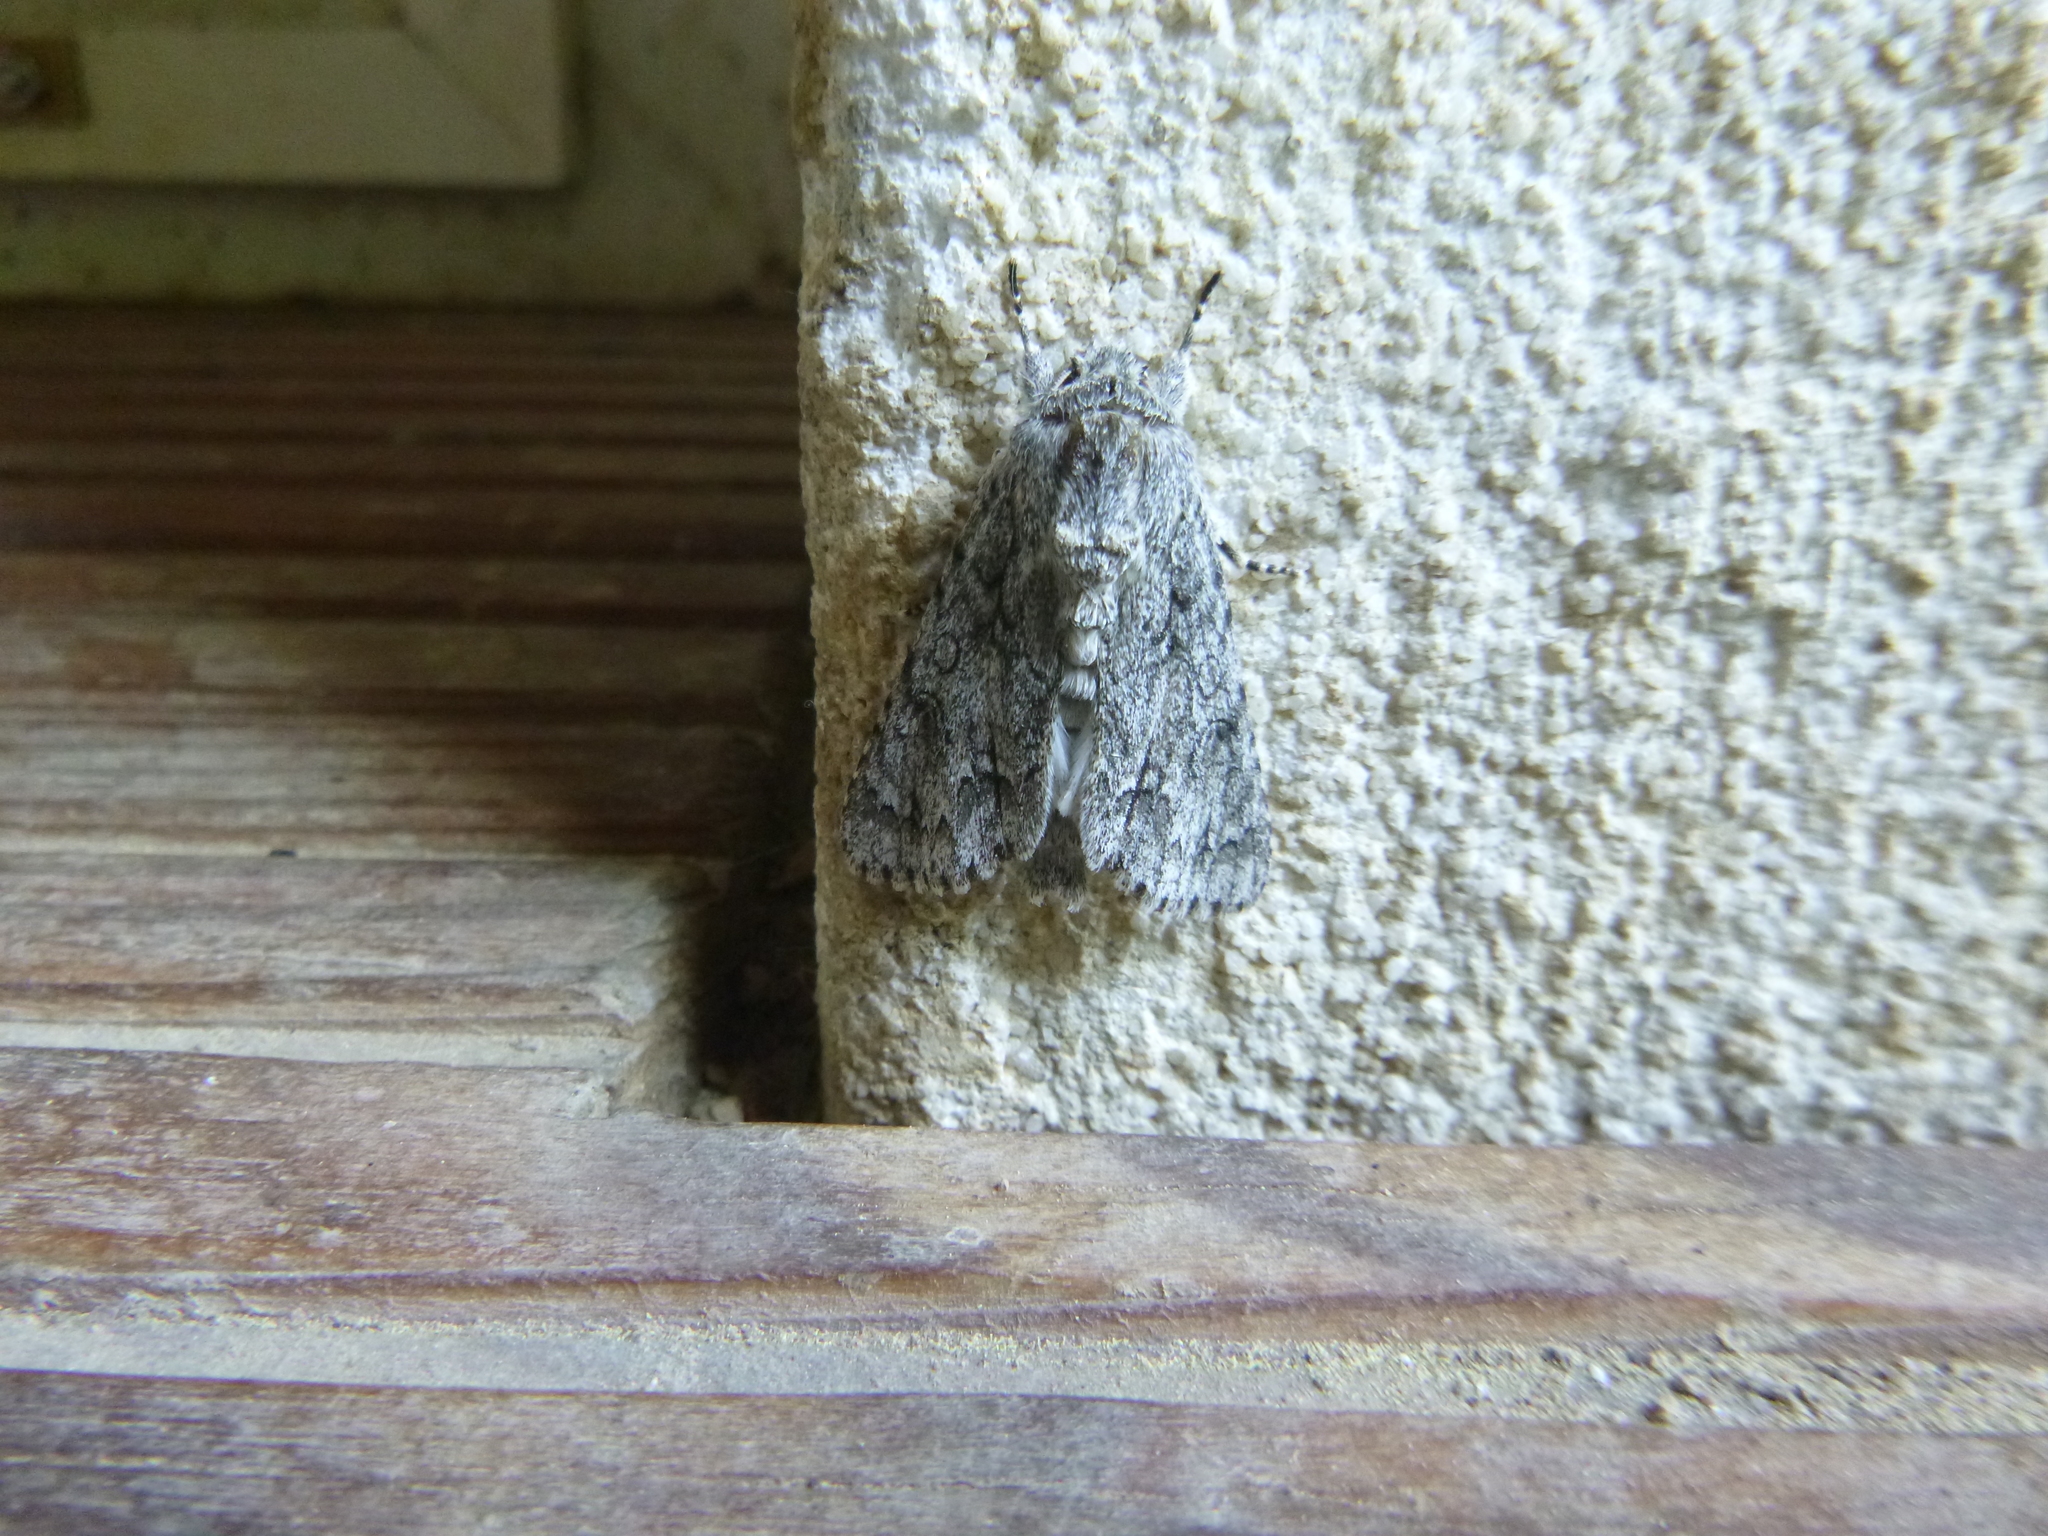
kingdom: Animalia
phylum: Arthropoda
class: Insecta
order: Lepidoptera
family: Noctuidae
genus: Acronicta
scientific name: Acronicta aceris
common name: Sycamore
